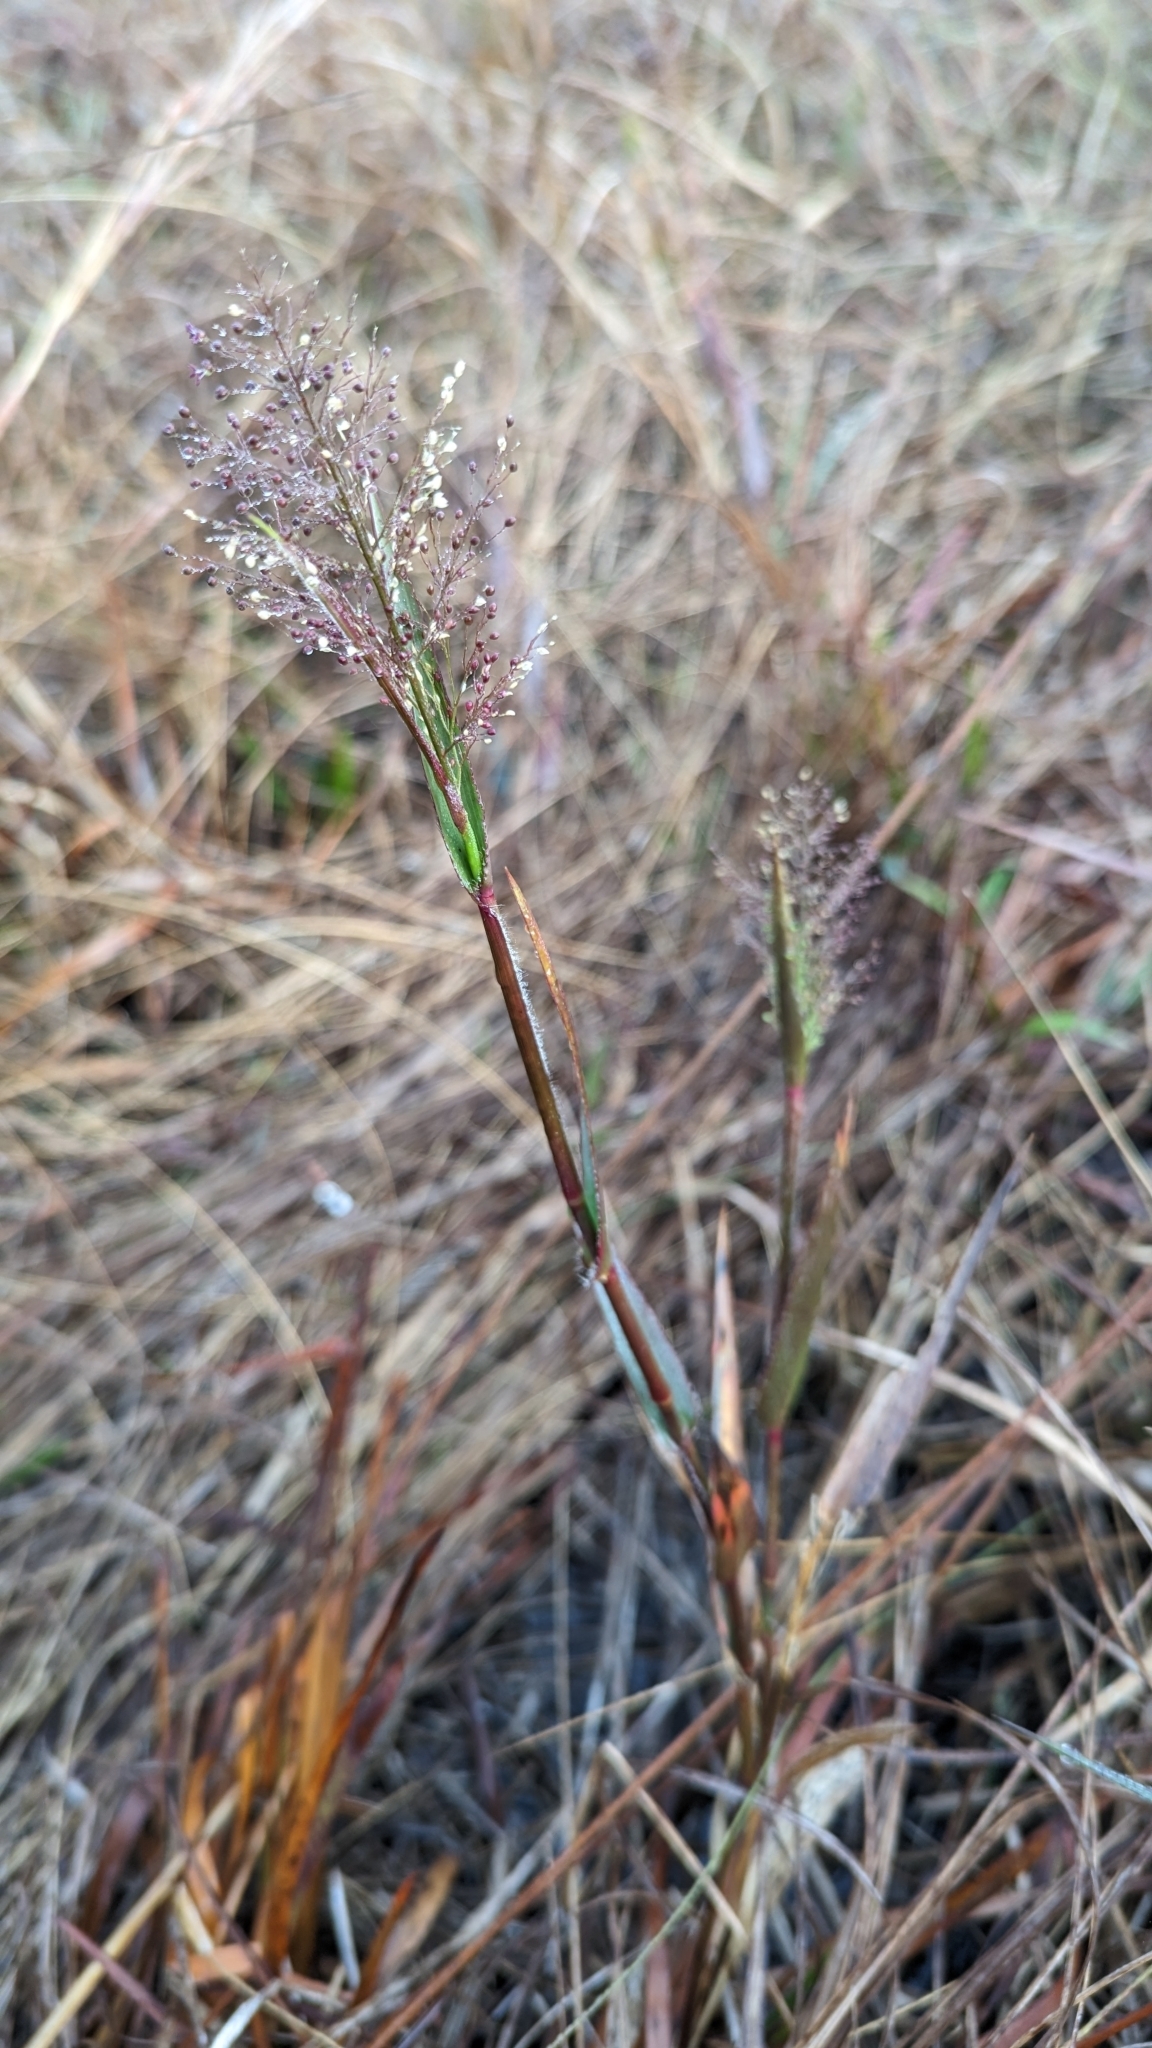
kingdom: Plantae
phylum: Tracheophyta
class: Liliopsida
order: Poales
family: Poaceae
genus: Dichanthelium
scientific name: Dichanthelium erectifolium
